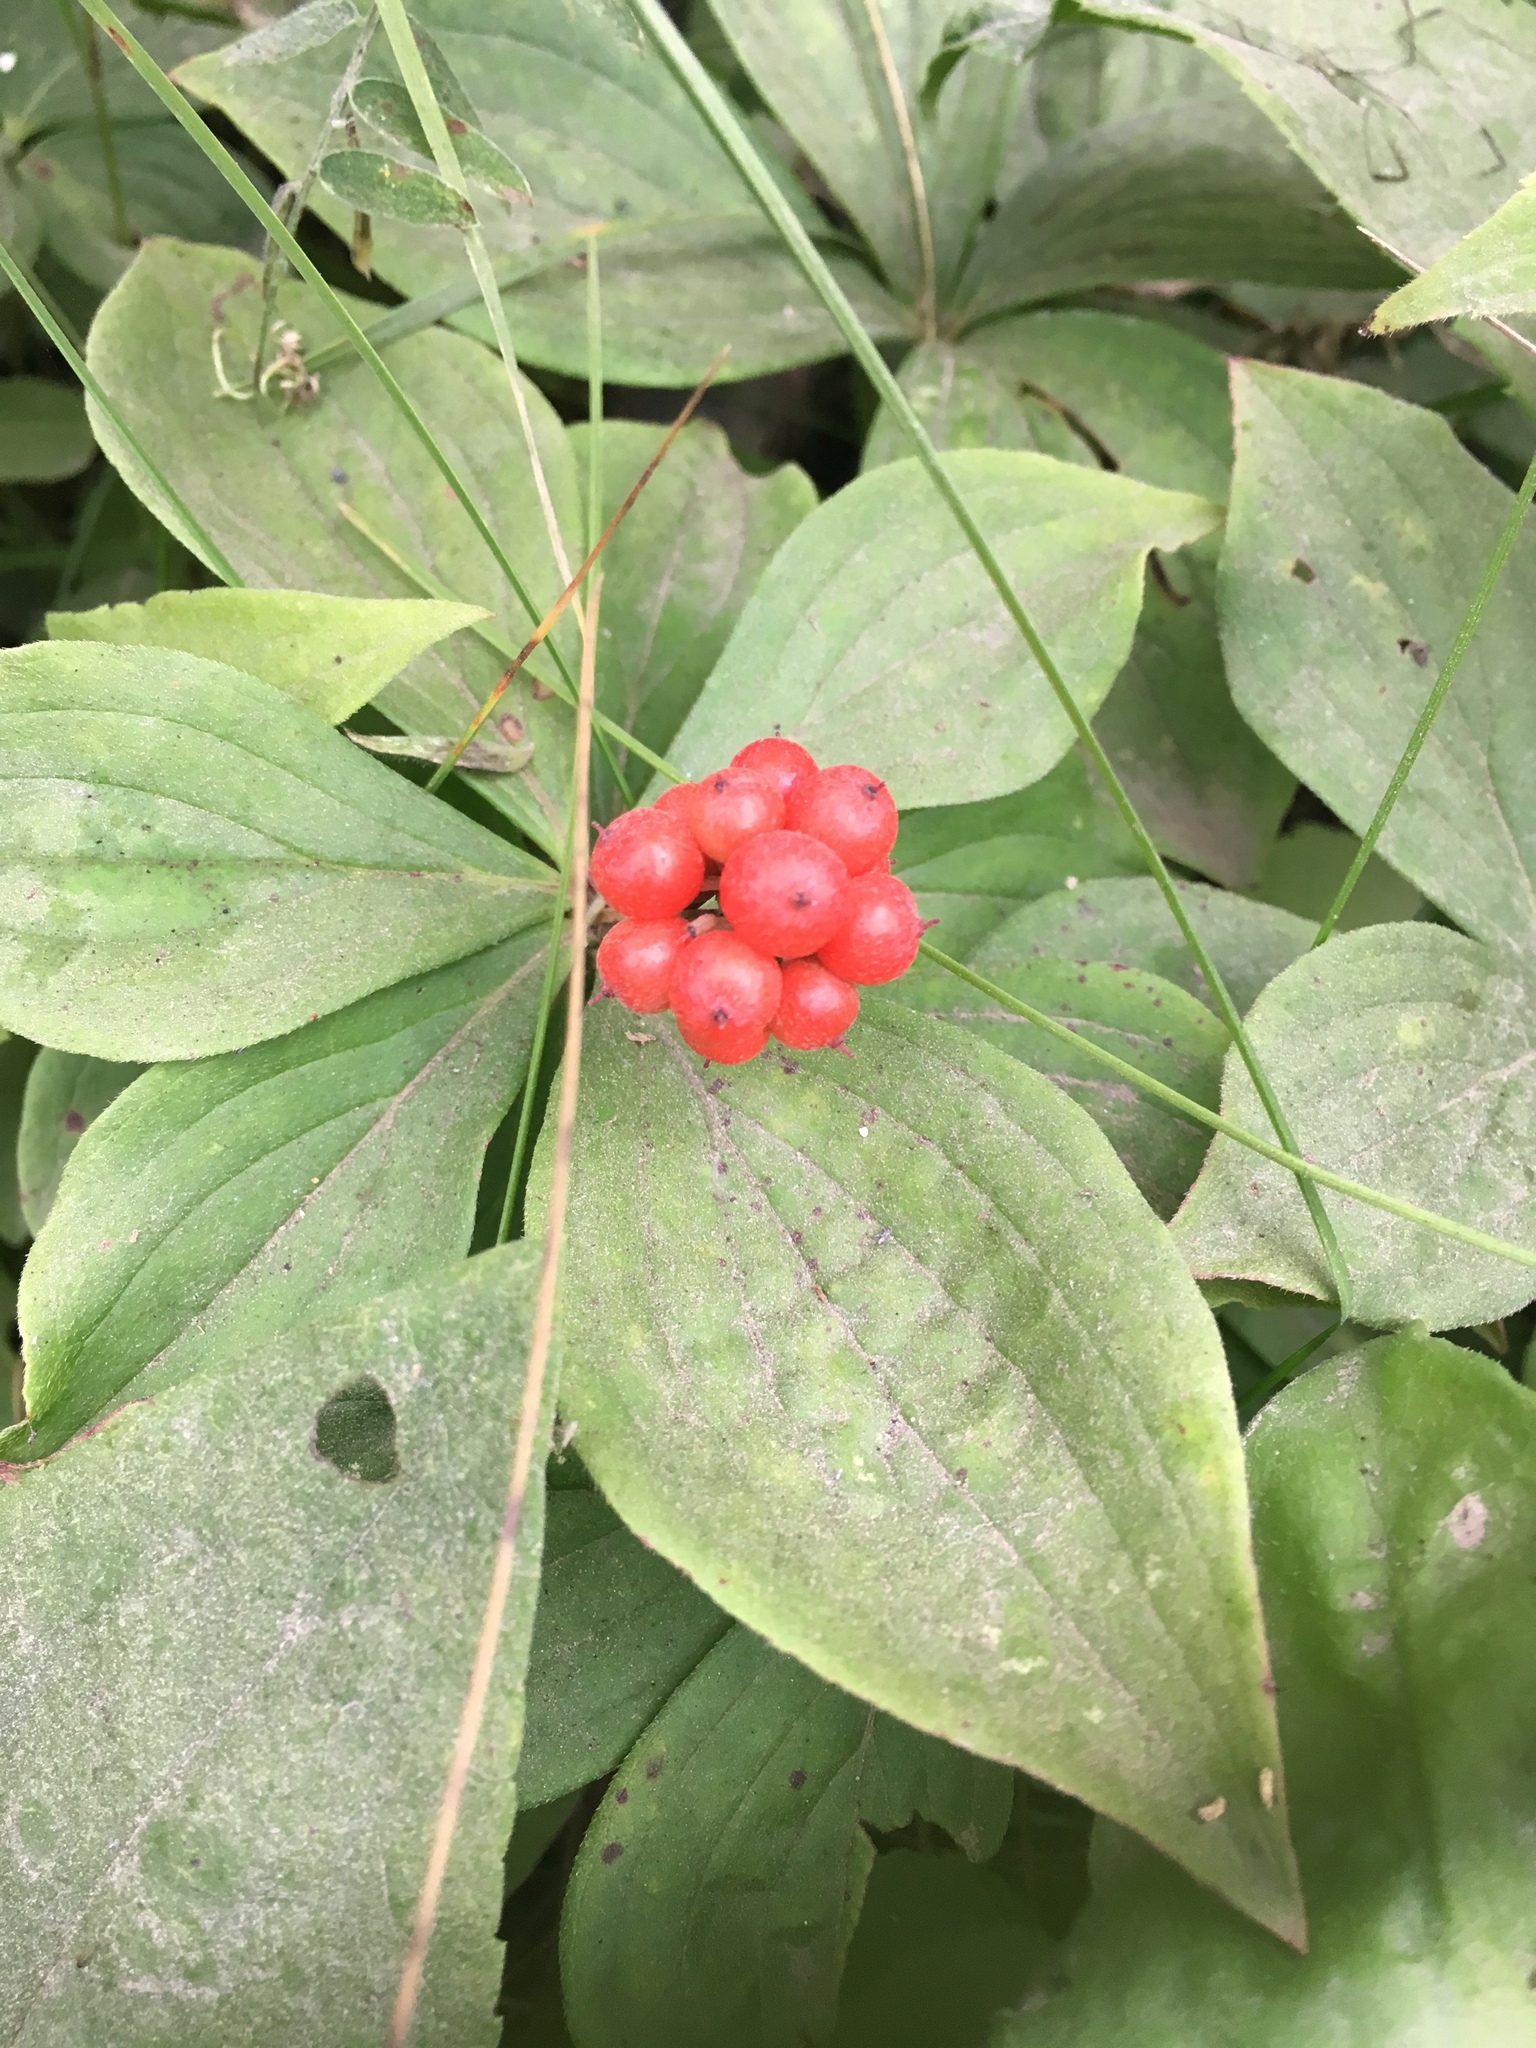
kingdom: Plantae
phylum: Tracheophyta
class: Magnoliopsida
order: Cornales
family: Cornaceae
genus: Cornus
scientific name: Cornus canadensis
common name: Creeping dogwood
